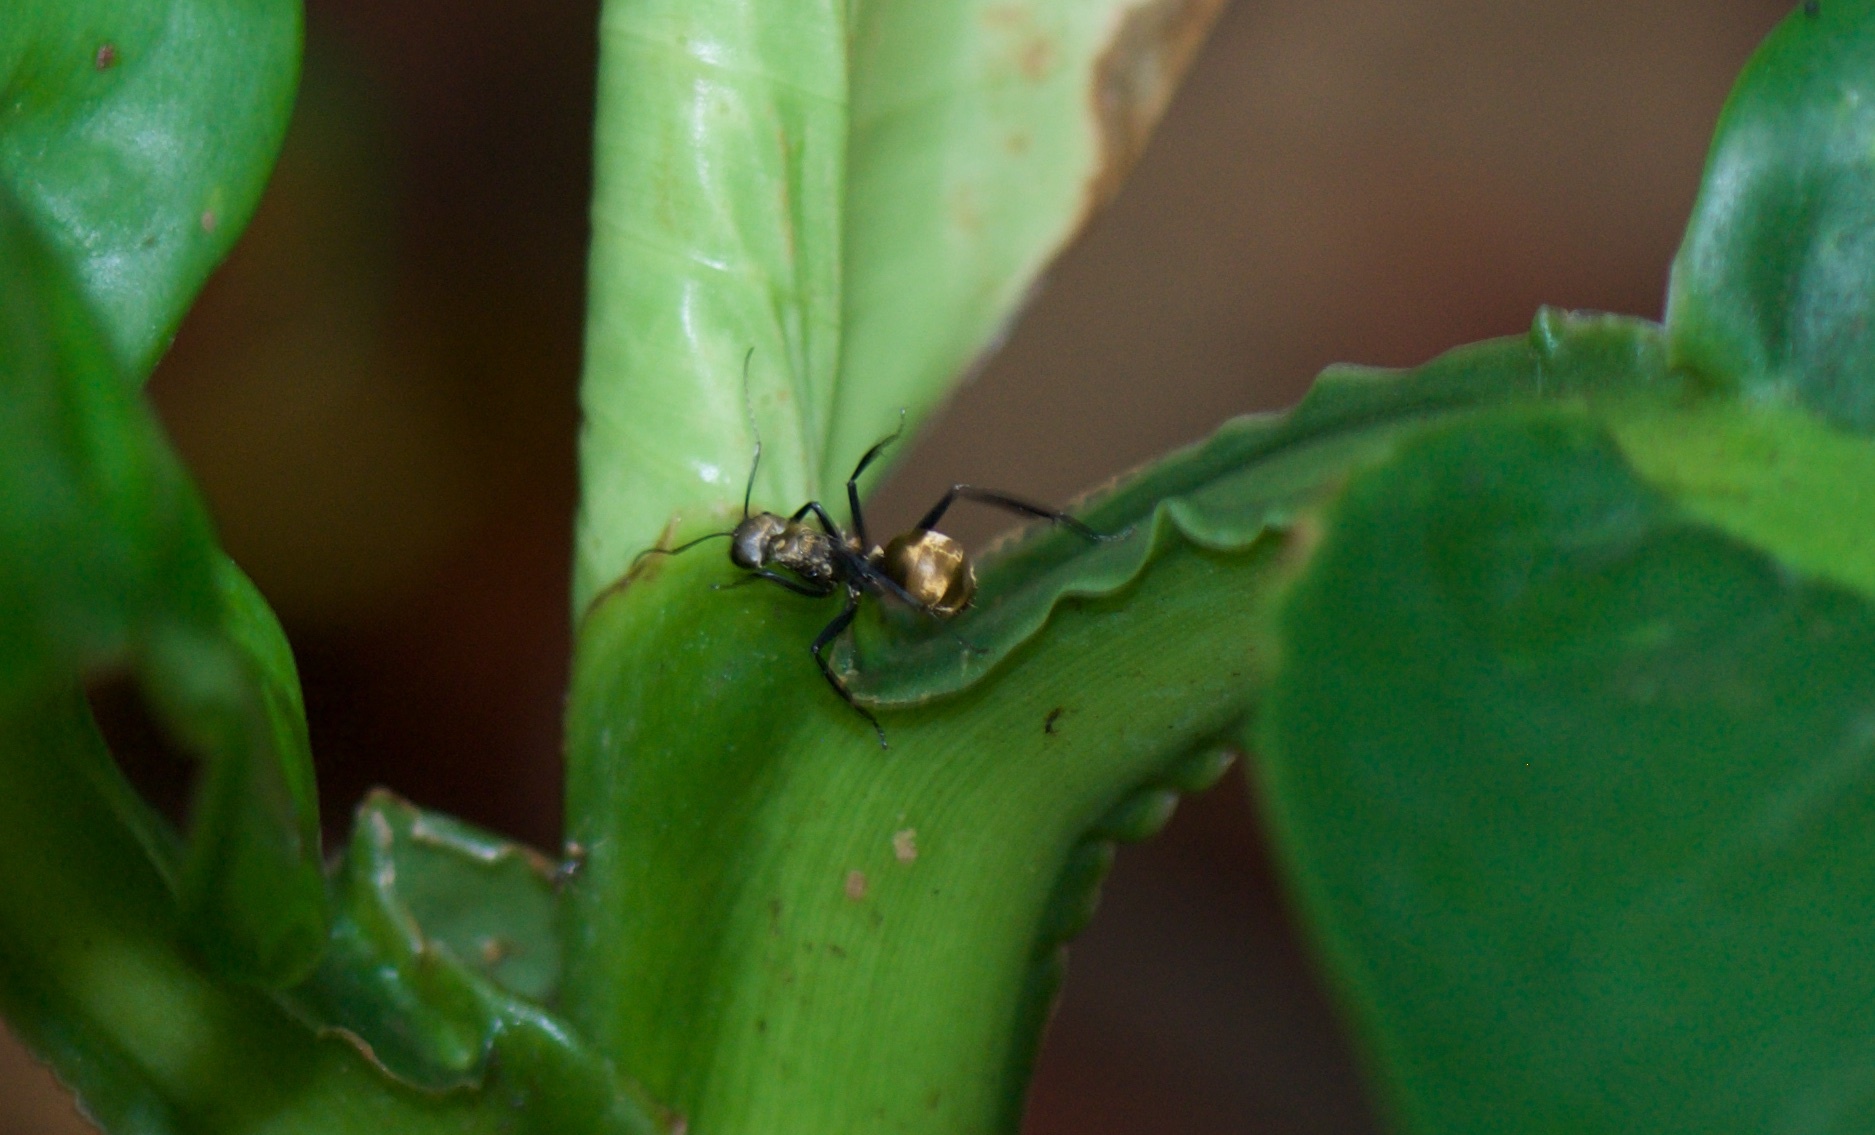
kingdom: Animalia
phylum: Arthropoda
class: Insecta
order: Hymenoptera
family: Formicidae
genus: Camponotus
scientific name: Camponotus sericeiventris
